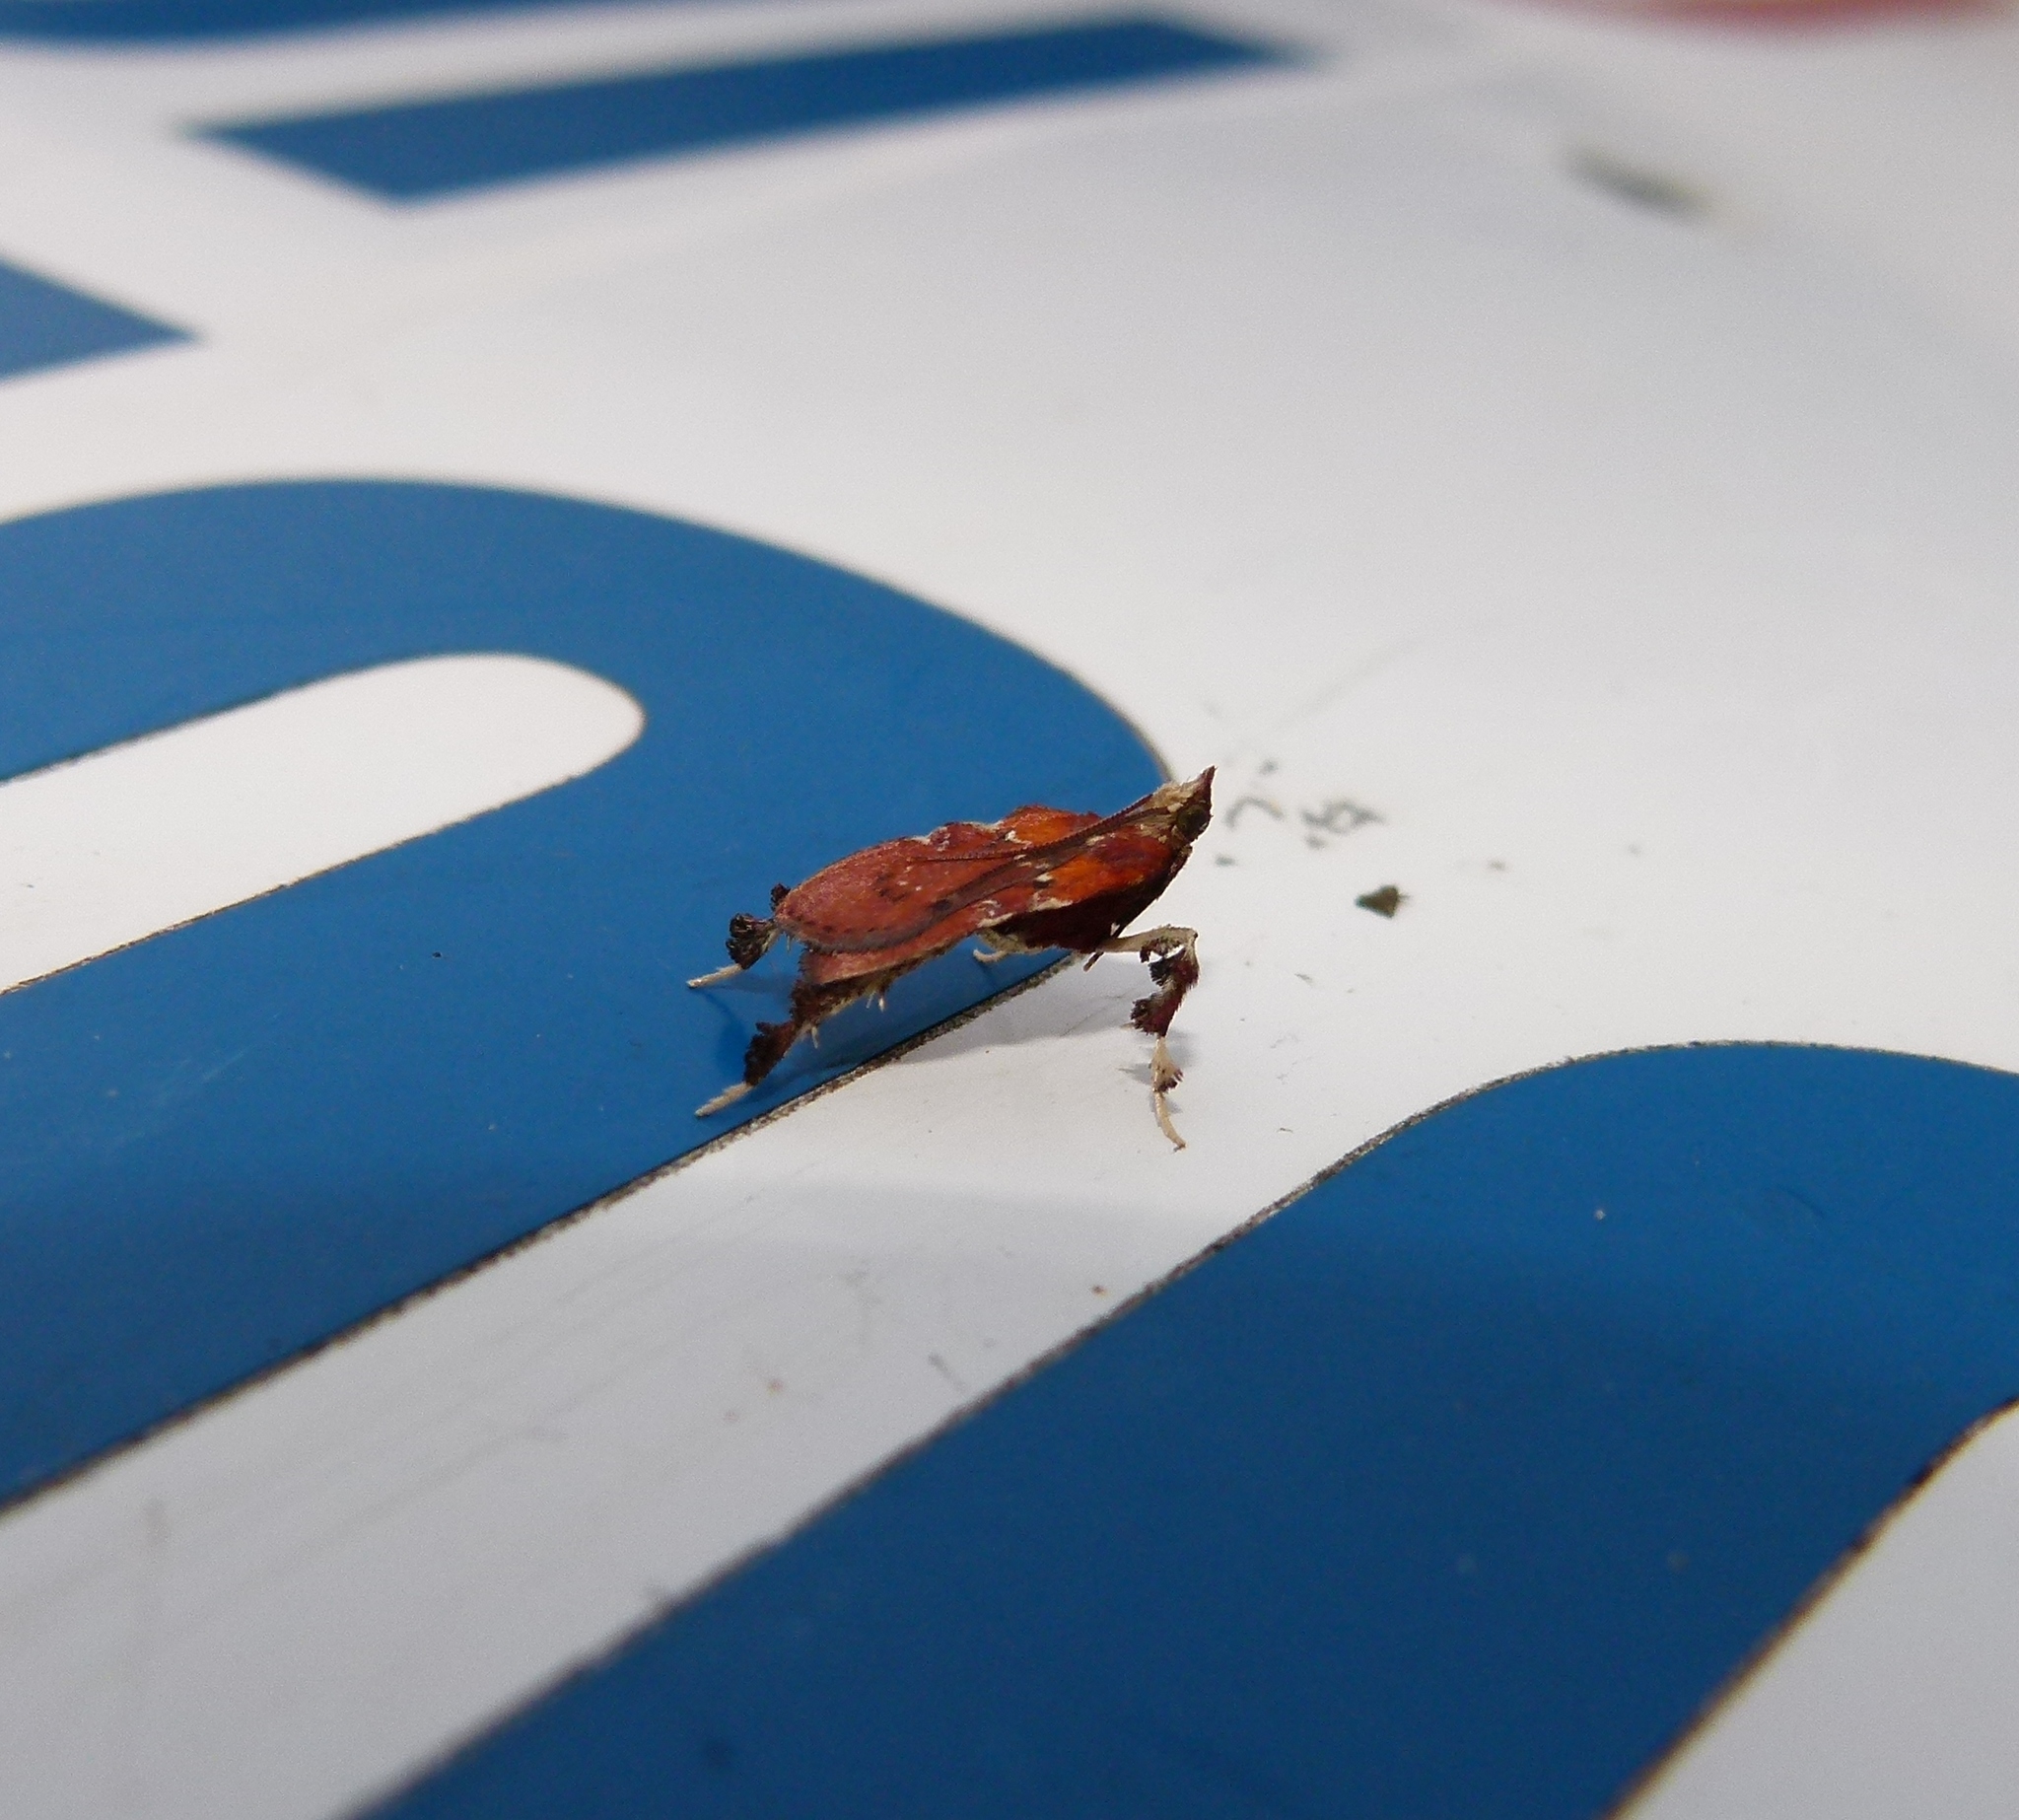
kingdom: Animalia
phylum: Arthropoda
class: Insecta
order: Lepidoptera
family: Pyralidae
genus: Galasa
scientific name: Galasa nigrinodis
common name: Boxwood leaftier moth
